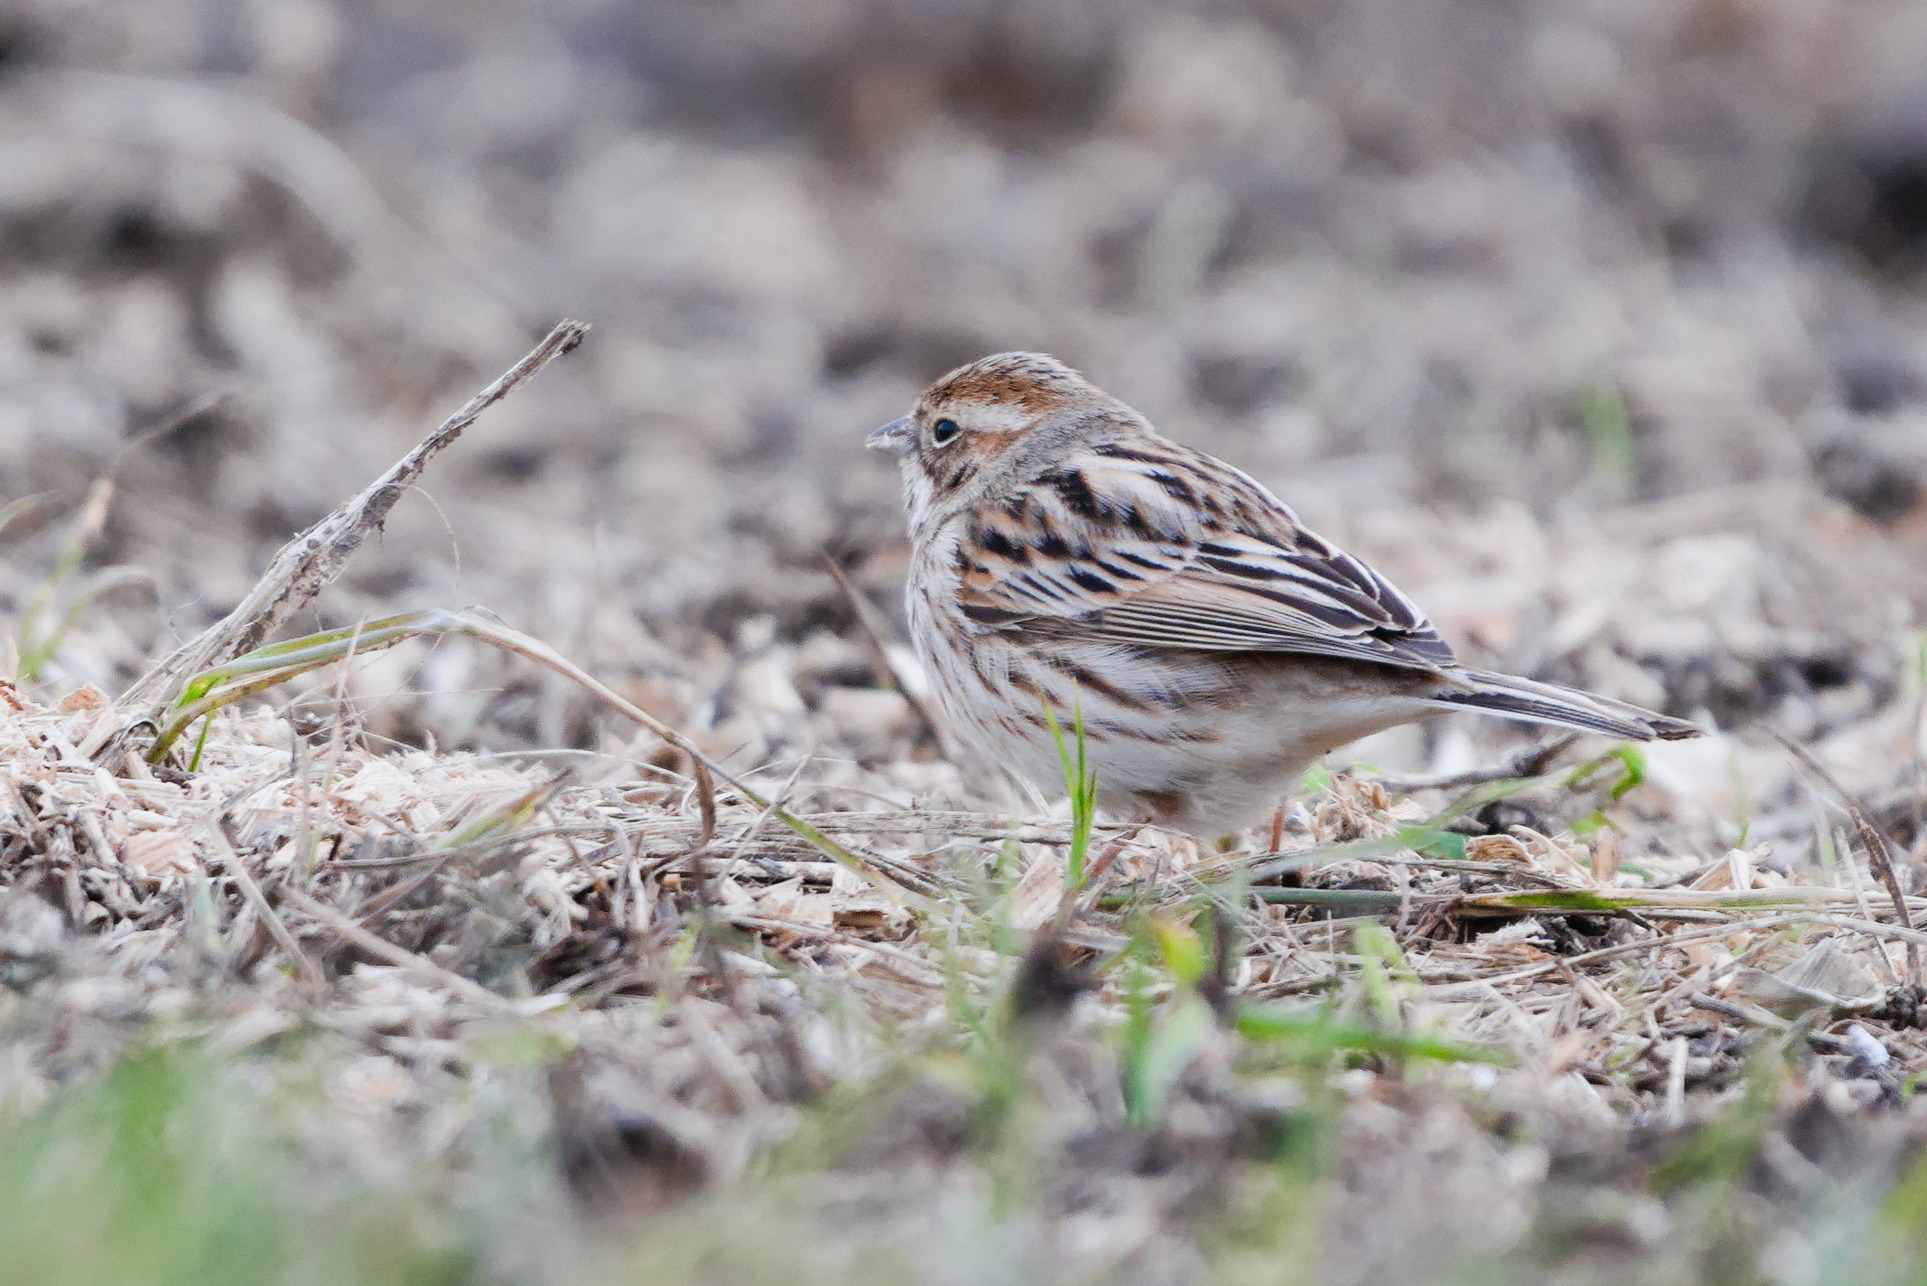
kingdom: Animalia
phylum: Chordata
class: Aves
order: Passeriformes
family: Emberizidae
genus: Emberiza
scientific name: Emberiza schoeniclus
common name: Reed bunting
